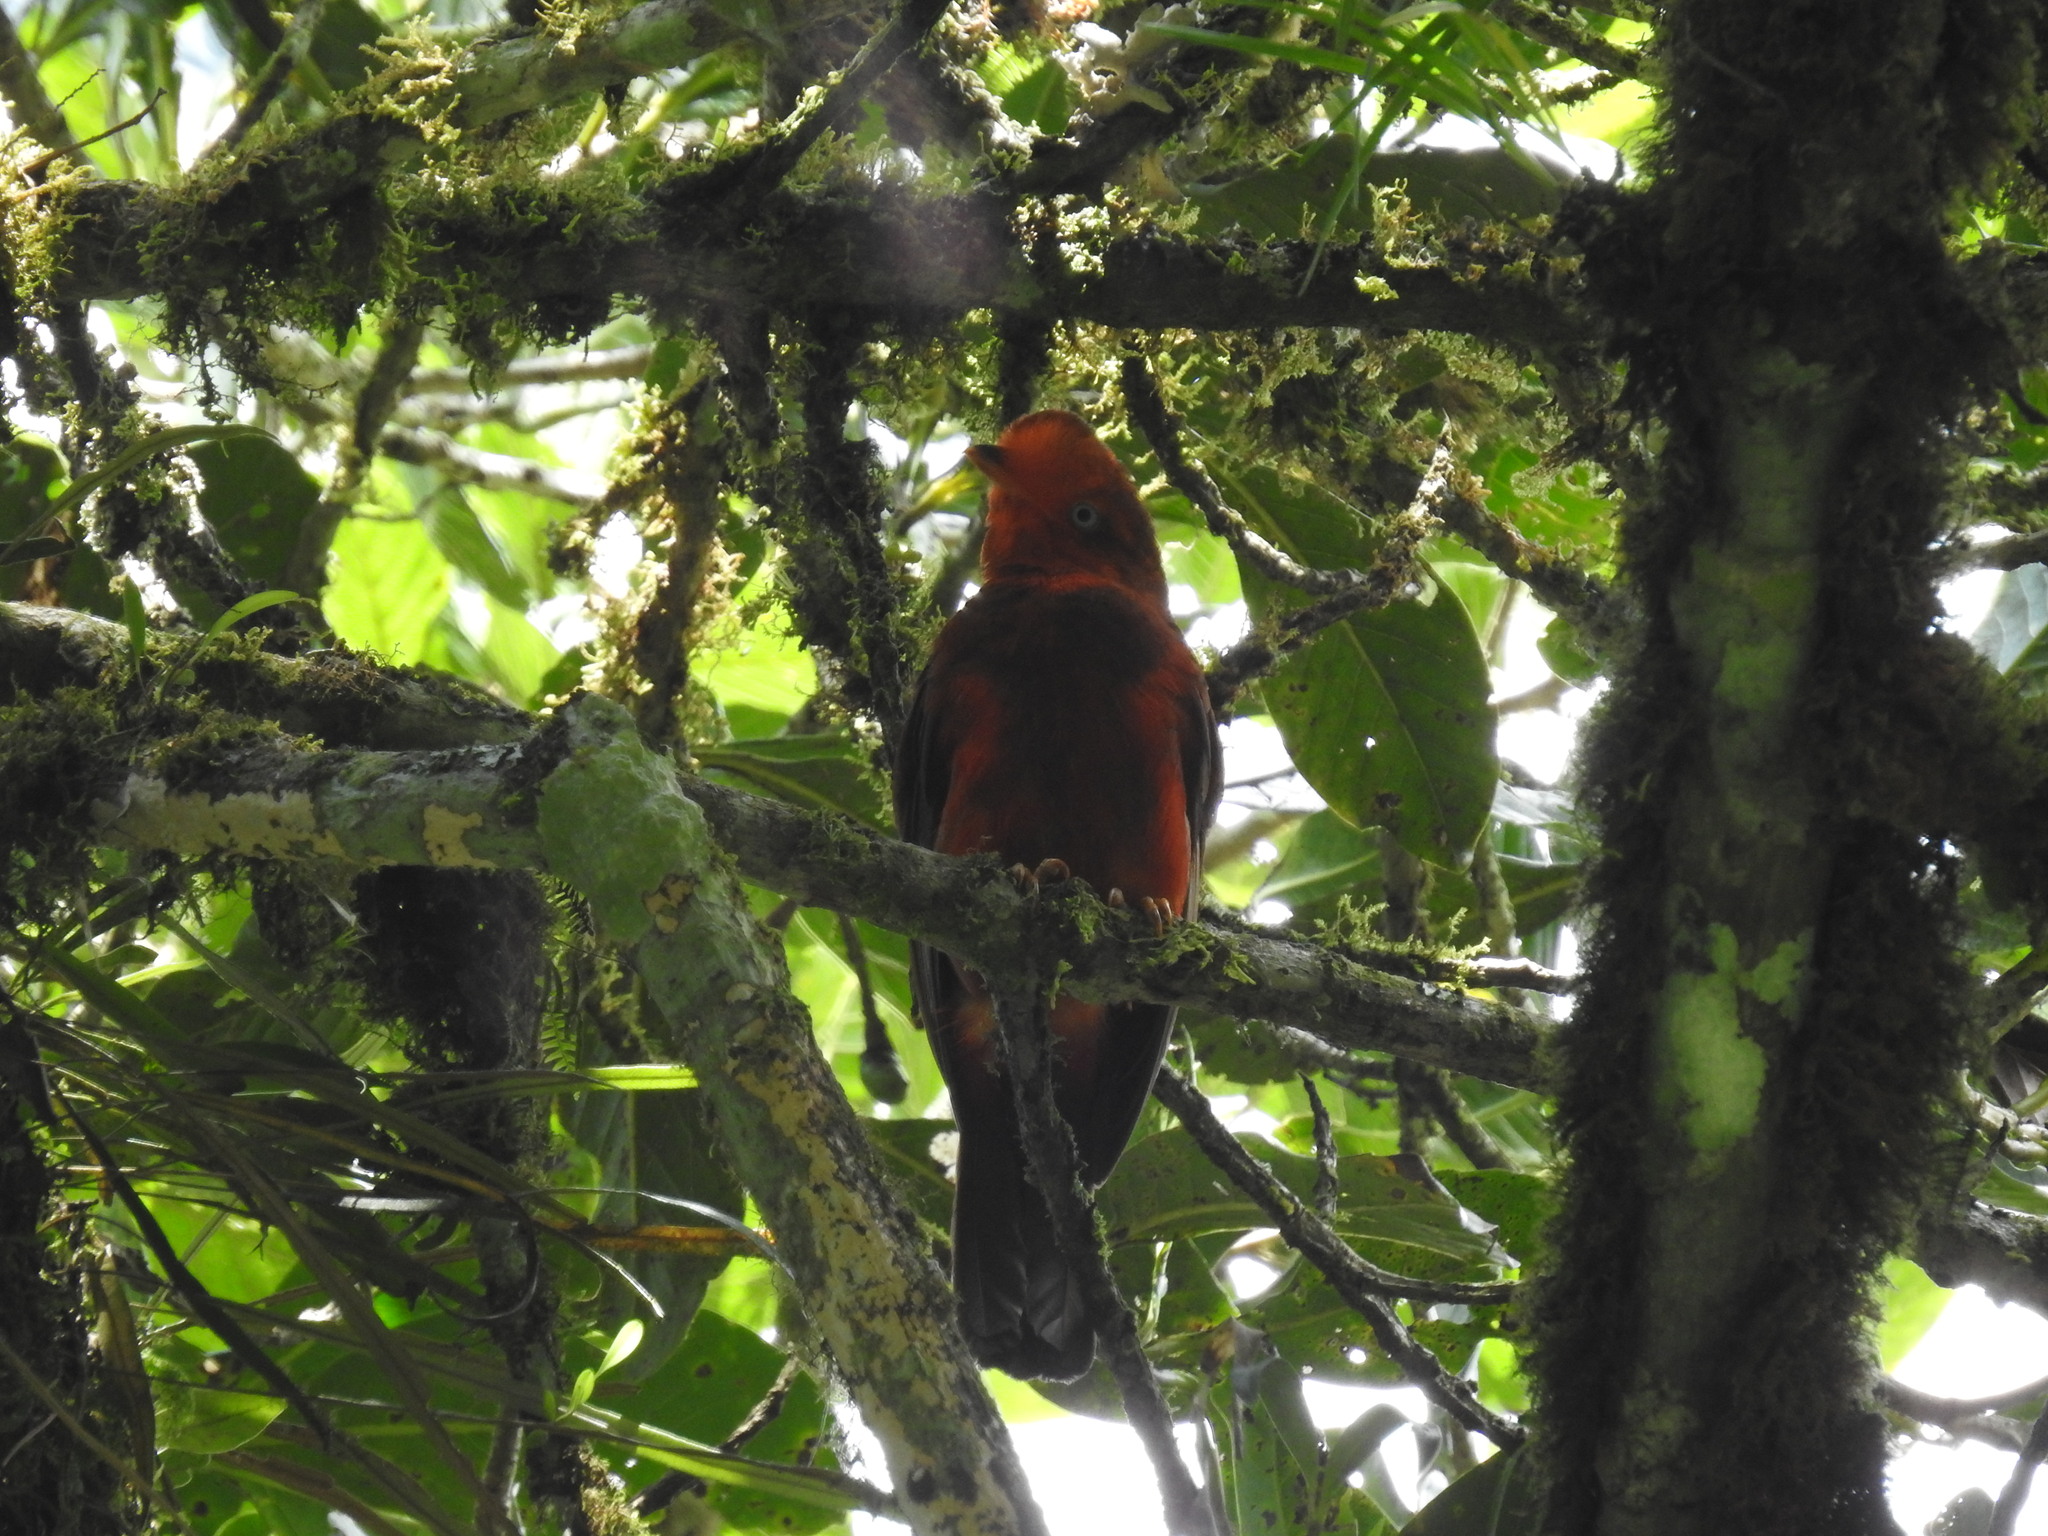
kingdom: Animalia
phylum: Chordata
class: Aves
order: Passeriformes
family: Cotingidae
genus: Rupicola
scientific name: Rupicola peruvianus
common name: Andean cock-of-the-rock
